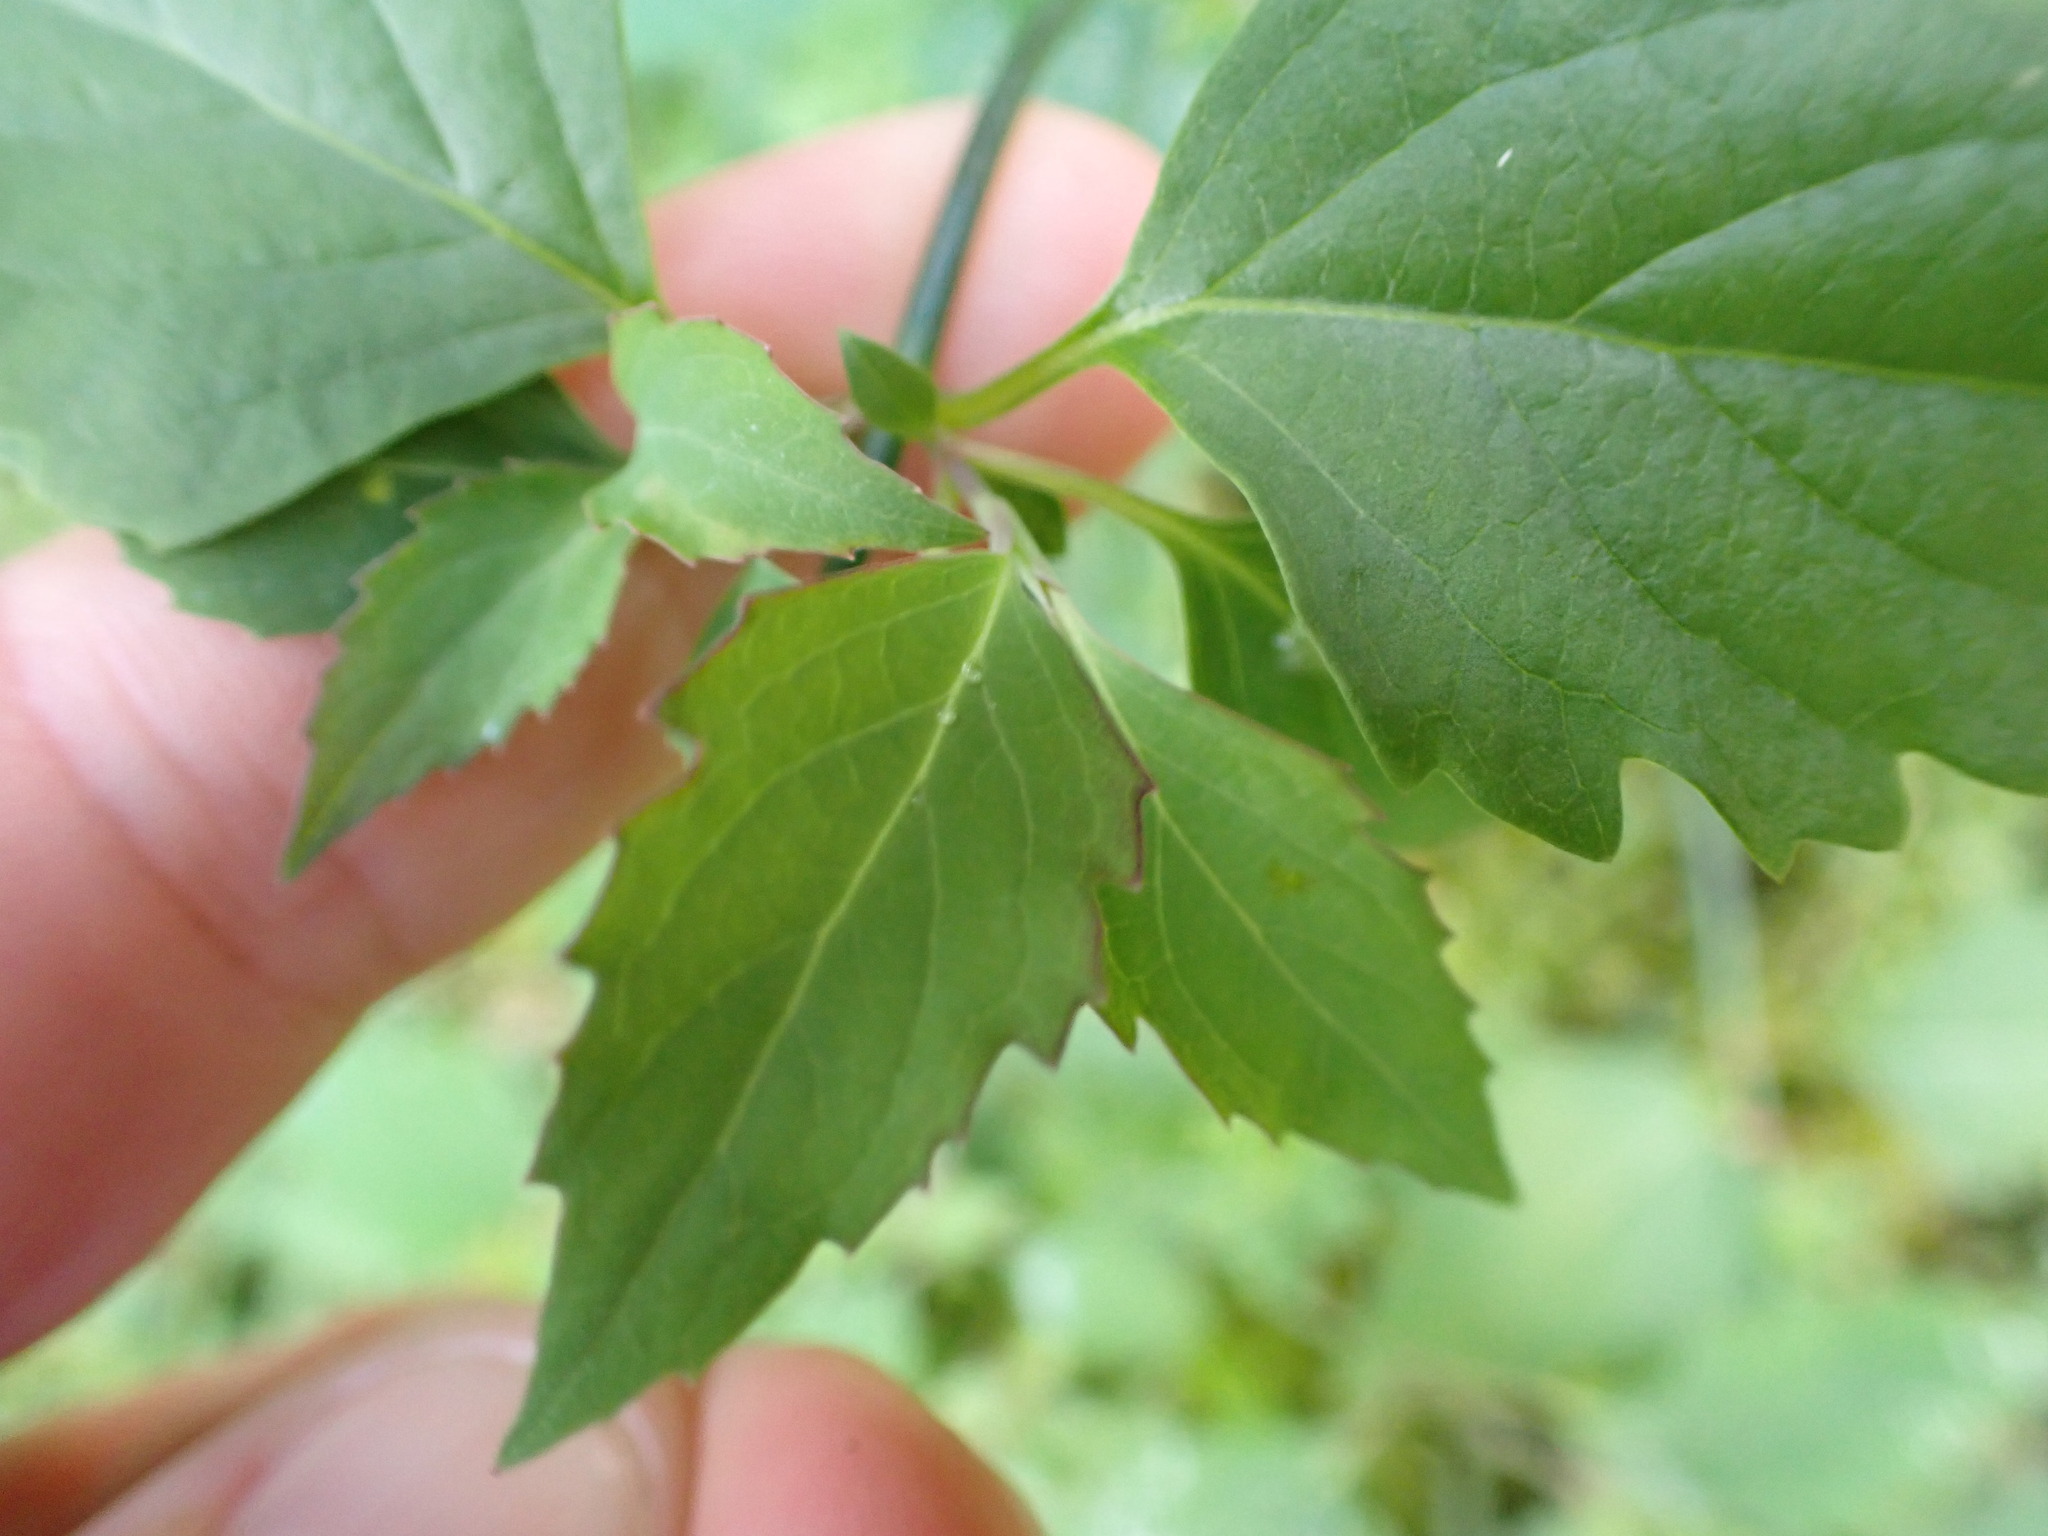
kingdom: Plantae
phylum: Tracheophyta
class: Magnoliopsida
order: Dipsacales
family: Caprifoliaceae
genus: Leycesteria
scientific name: Leycesteria formosa
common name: Himalayan honeysuckle
